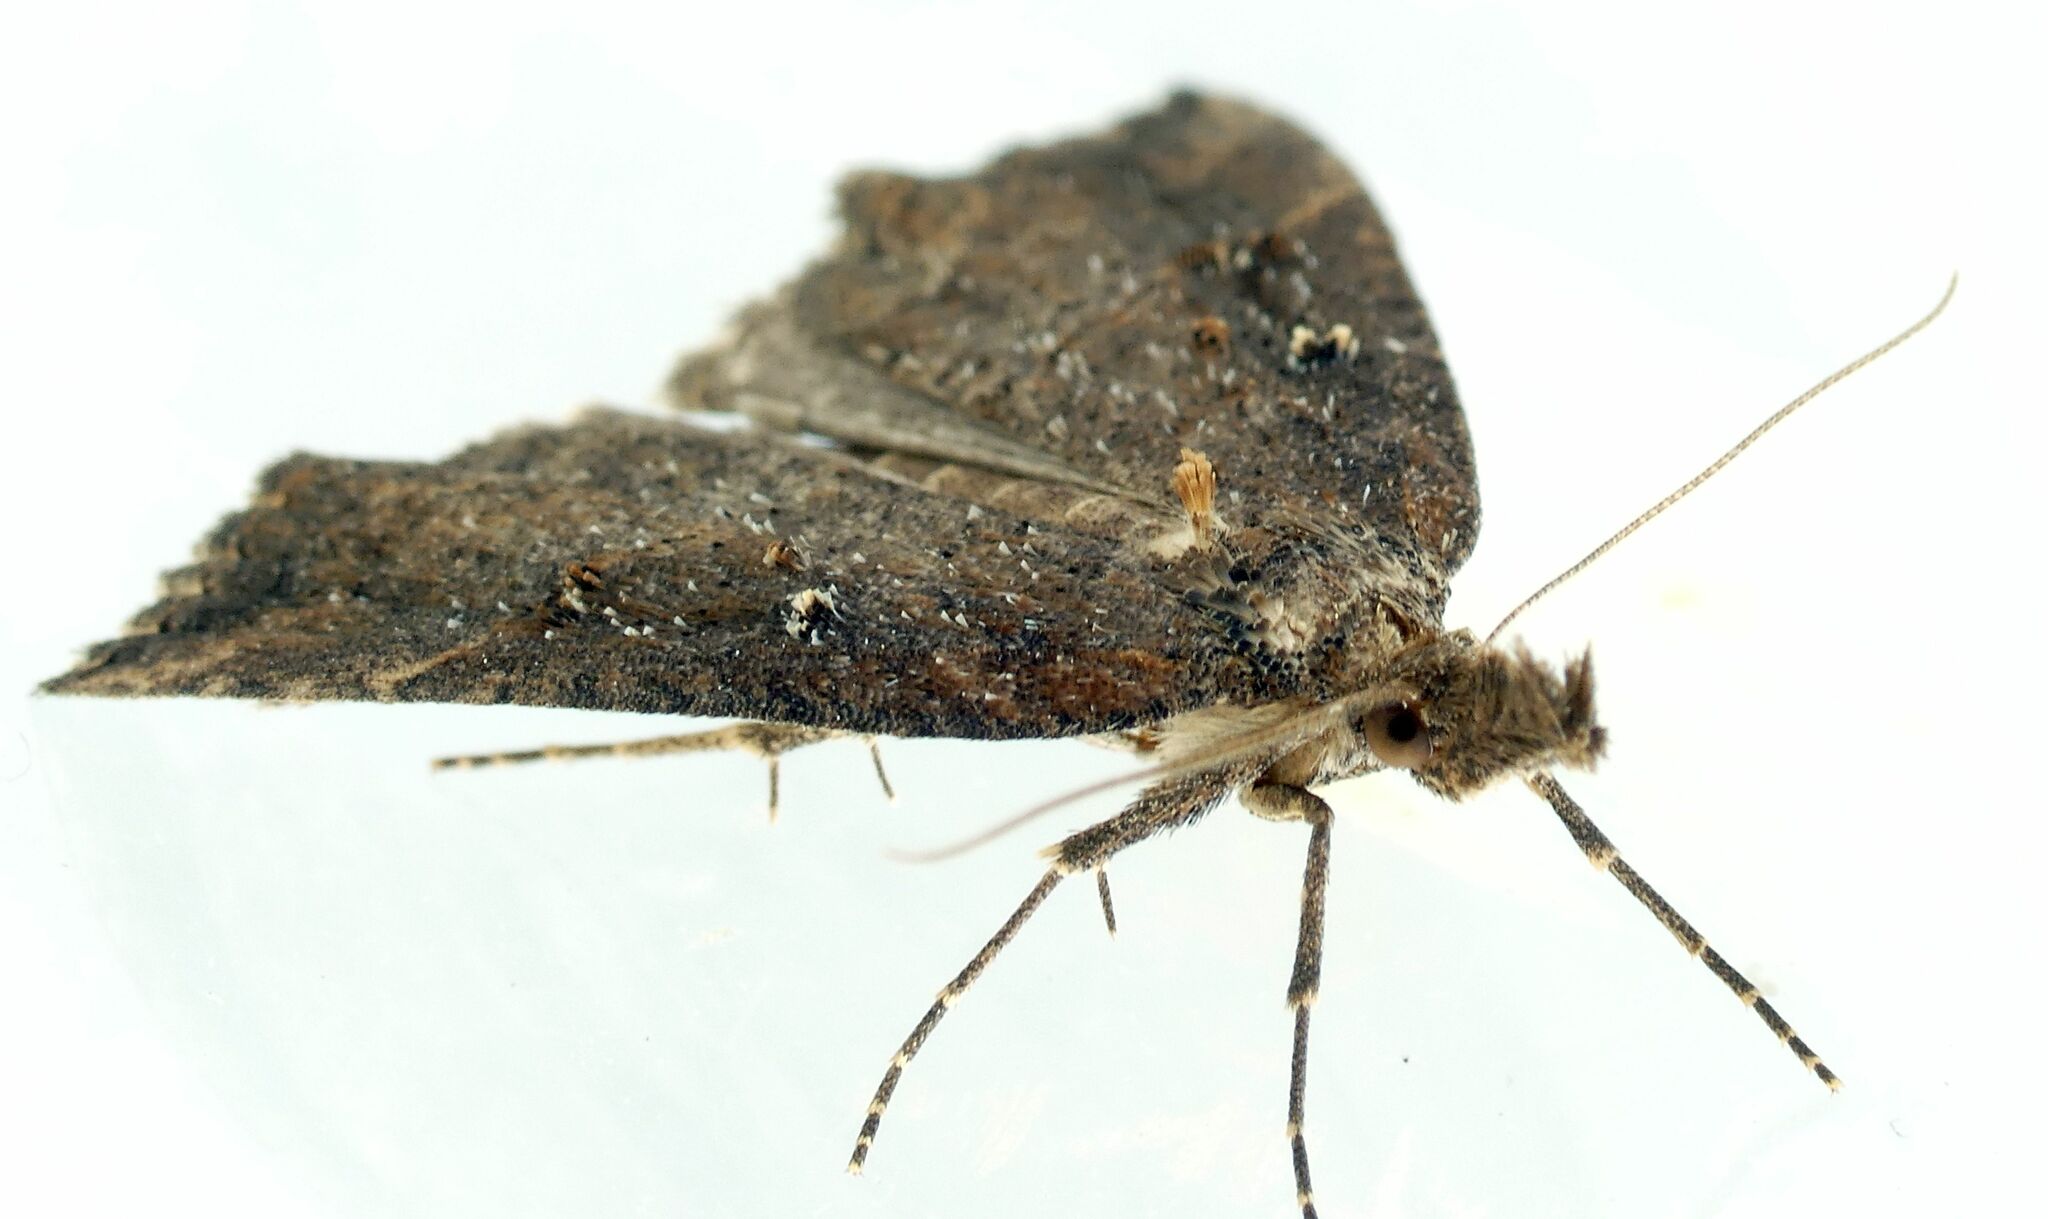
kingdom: Animalia
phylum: Arthropoda
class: Insecta
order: Lepidoptera
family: Erebidae
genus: Hypena
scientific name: Hypena rostralis
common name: Buttoned snout
